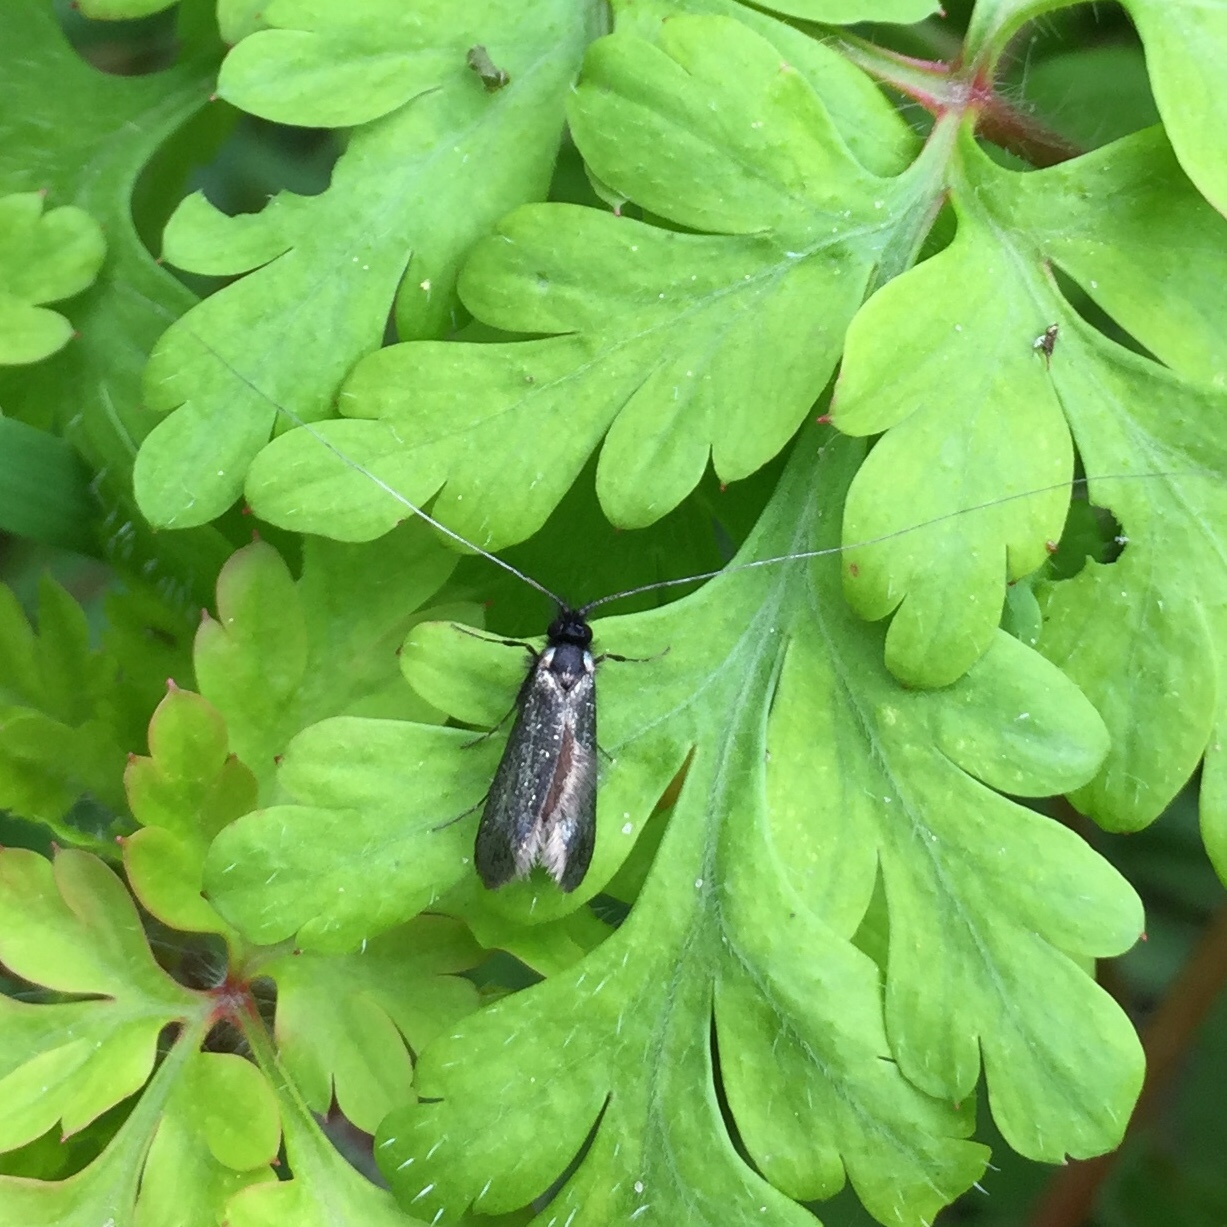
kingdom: Animalia
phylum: Arthropoda
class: Insecta
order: Lepidoptera
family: Adelidae
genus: Adela
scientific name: Adela viridella
